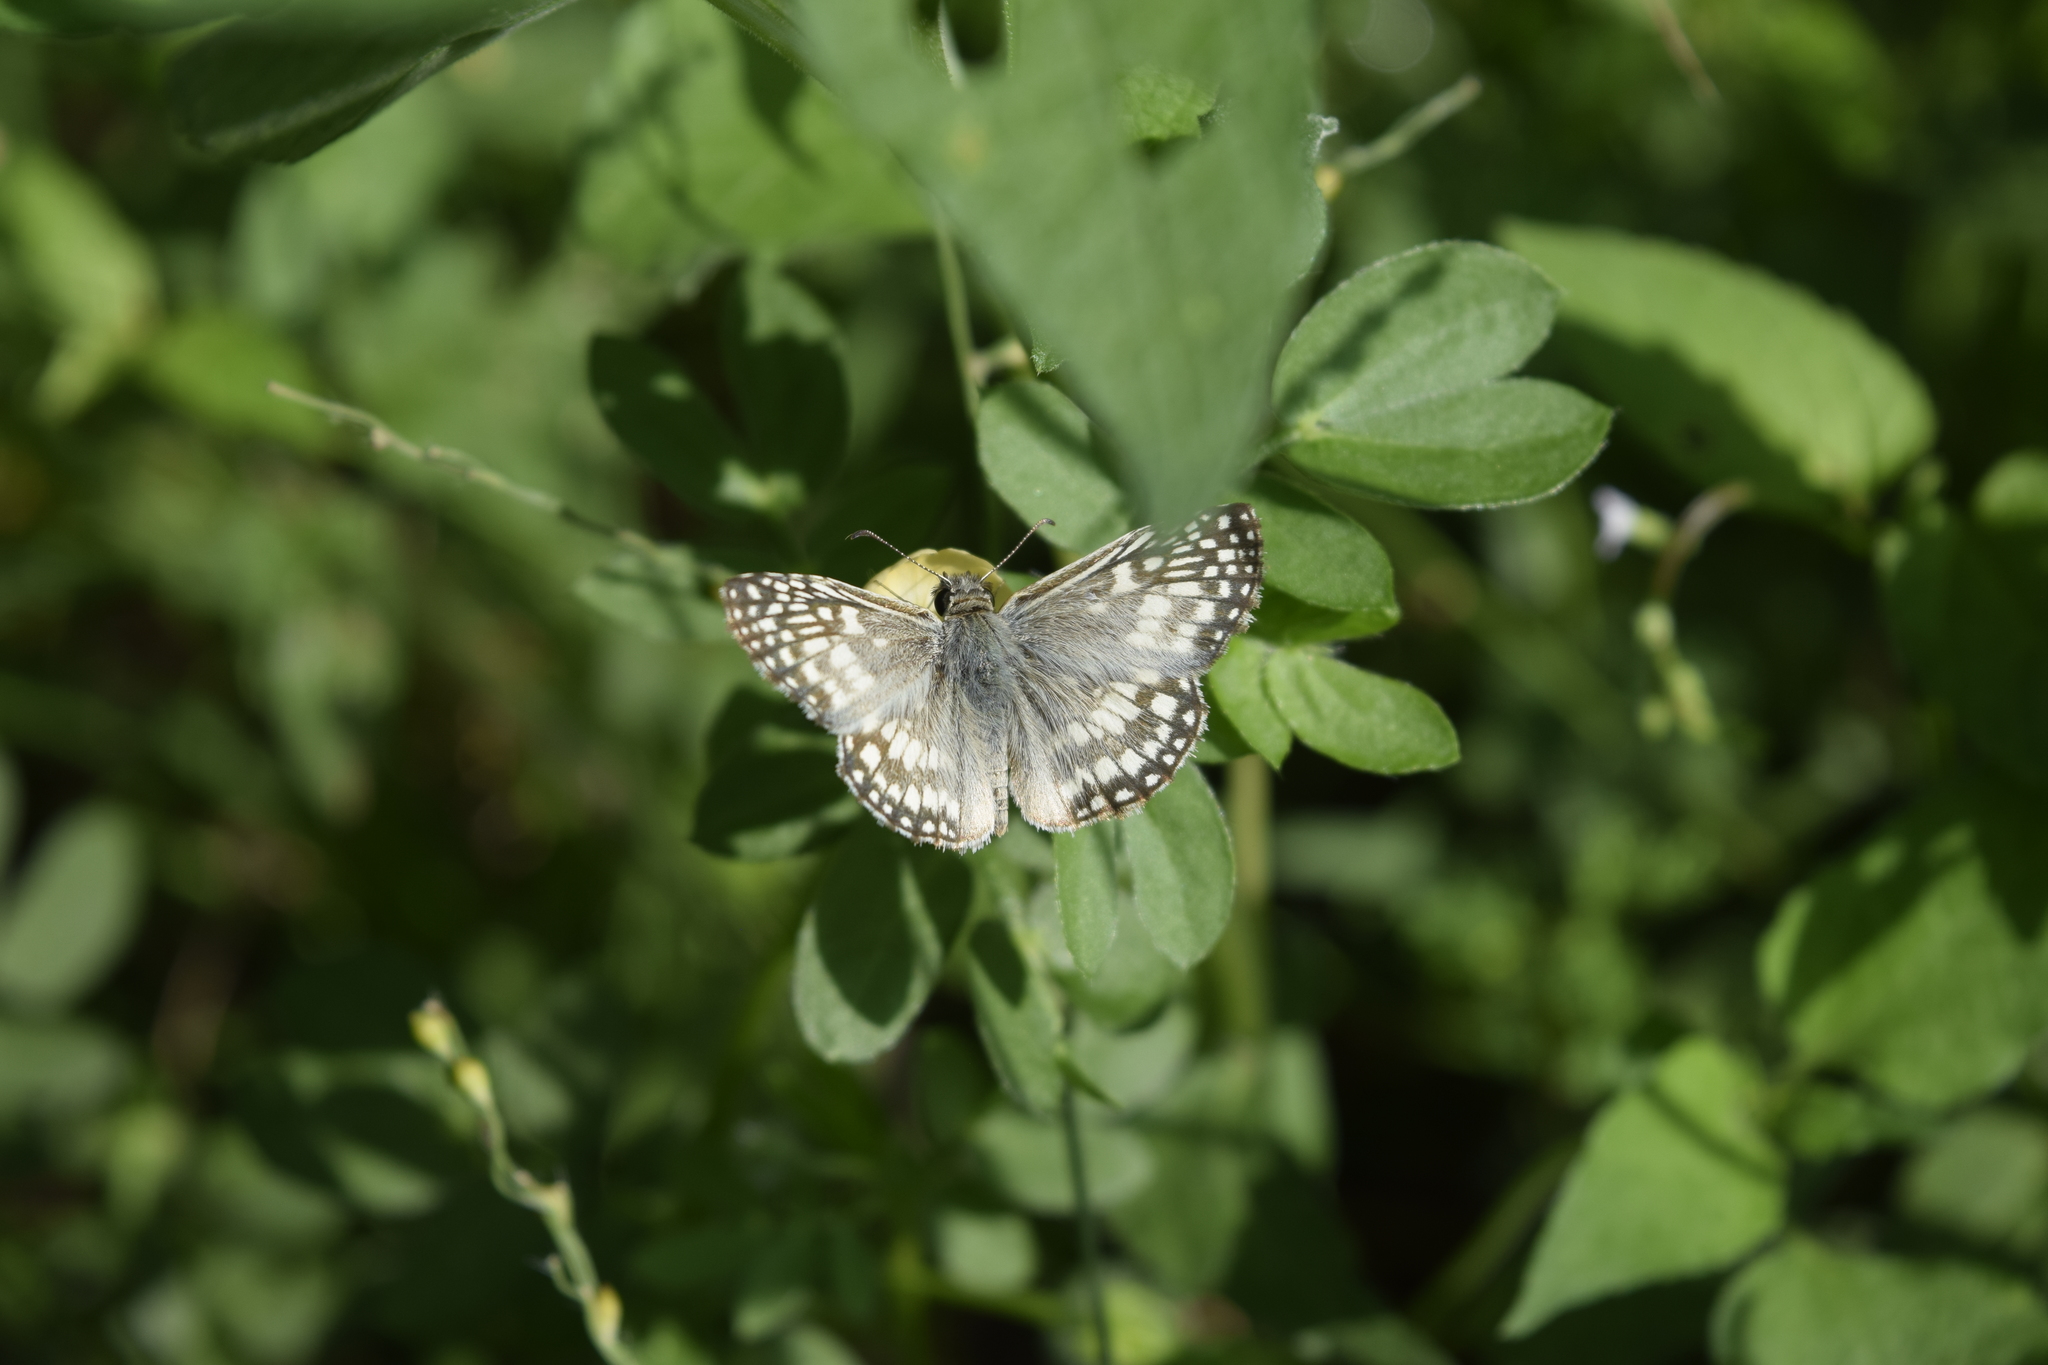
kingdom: Animalia
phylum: Arthropoda
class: Insecta
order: Lepidoptera
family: Hesperiidae
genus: Pyrgus
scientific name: Pyrgus oileus
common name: Tropical checkered-skipper
